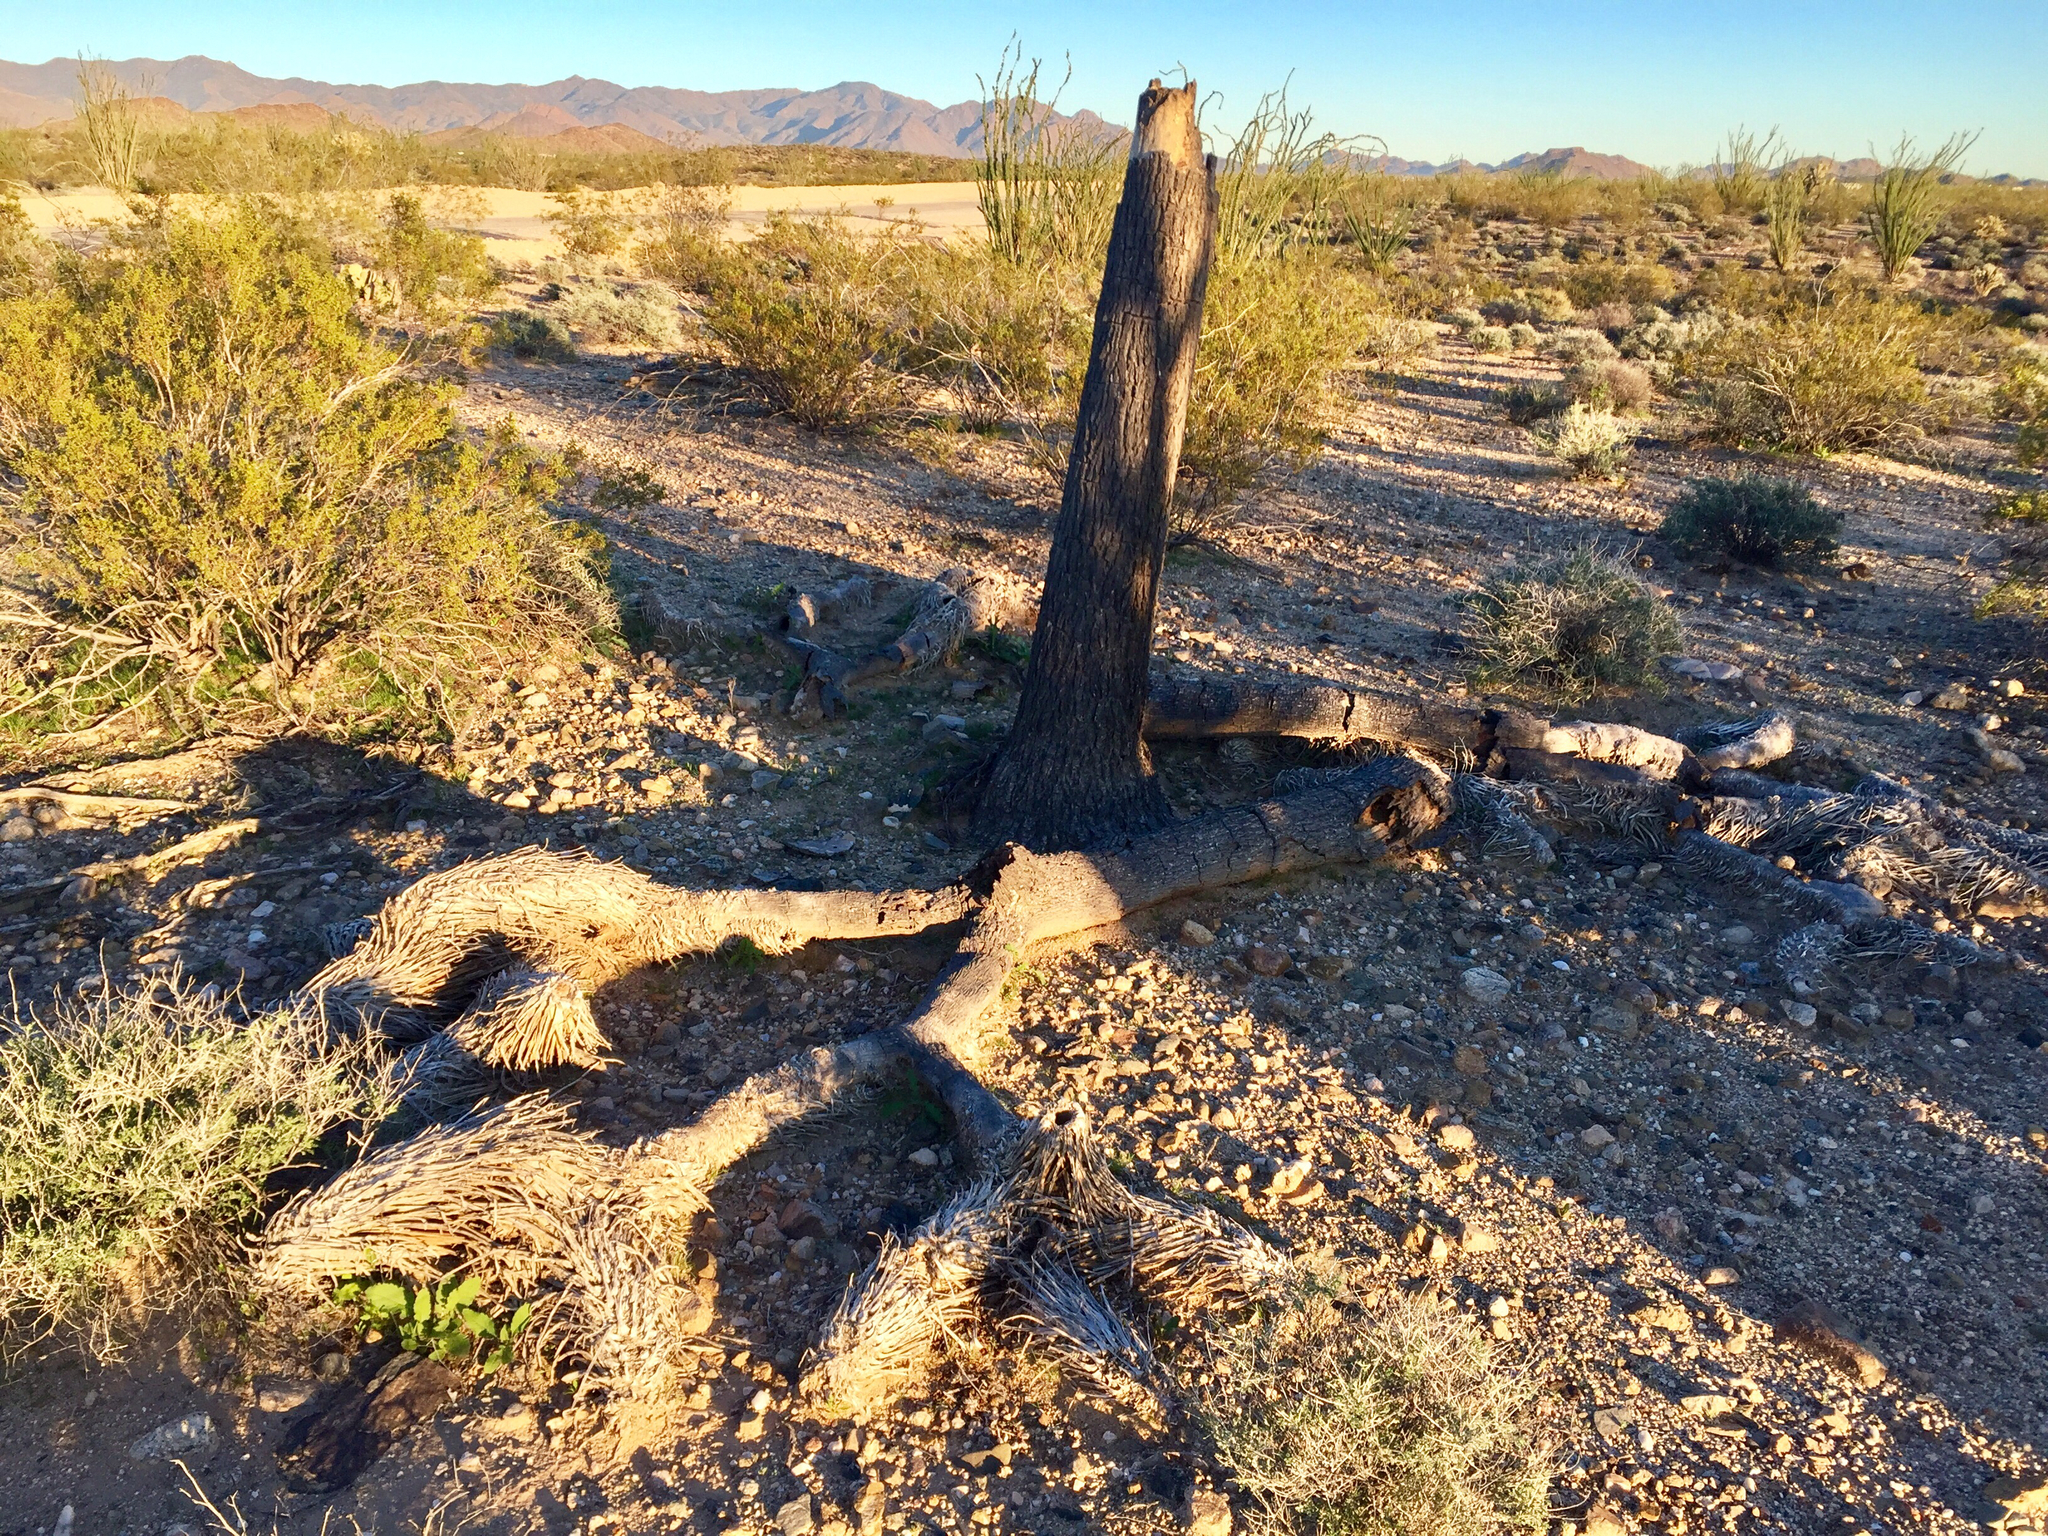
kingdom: Plantae
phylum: Tracheophyta
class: Liliopsida
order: Asparagales
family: Asparagaceae
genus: Yucca
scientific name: Yucca brevifolia
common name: Joshua tree
